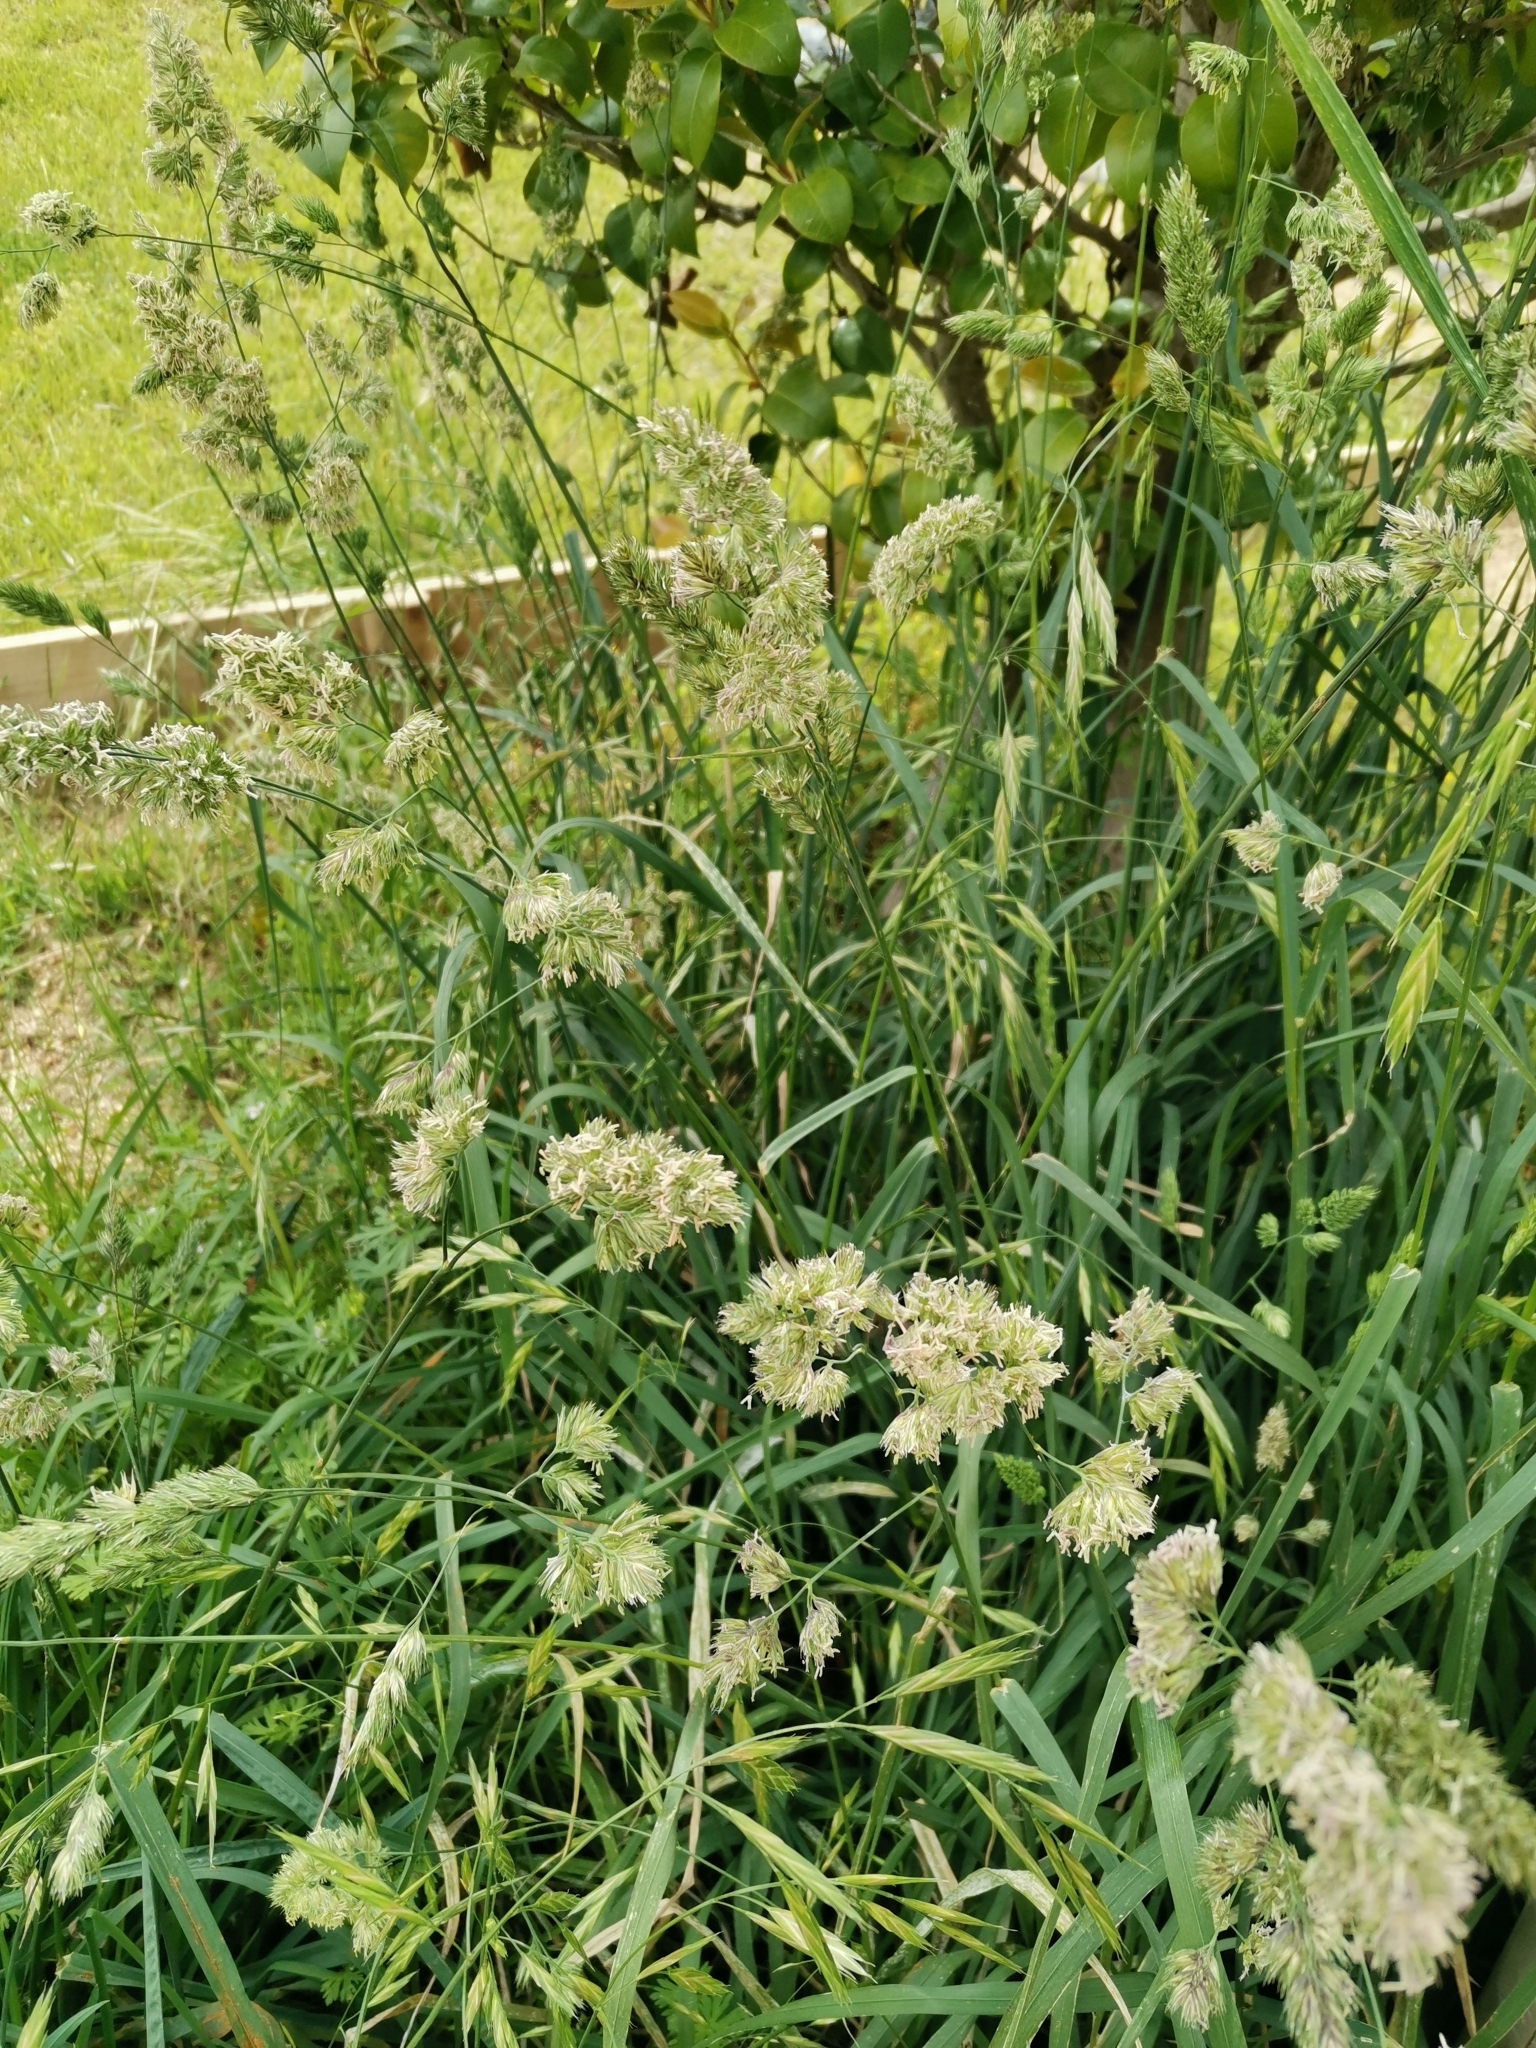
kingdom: Plantae
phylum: Tracheophyta
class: Liliopsida
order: Poales
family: Poaceae
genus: Dactylis
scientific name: Dactylis glomerata
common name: Orchardgrass
